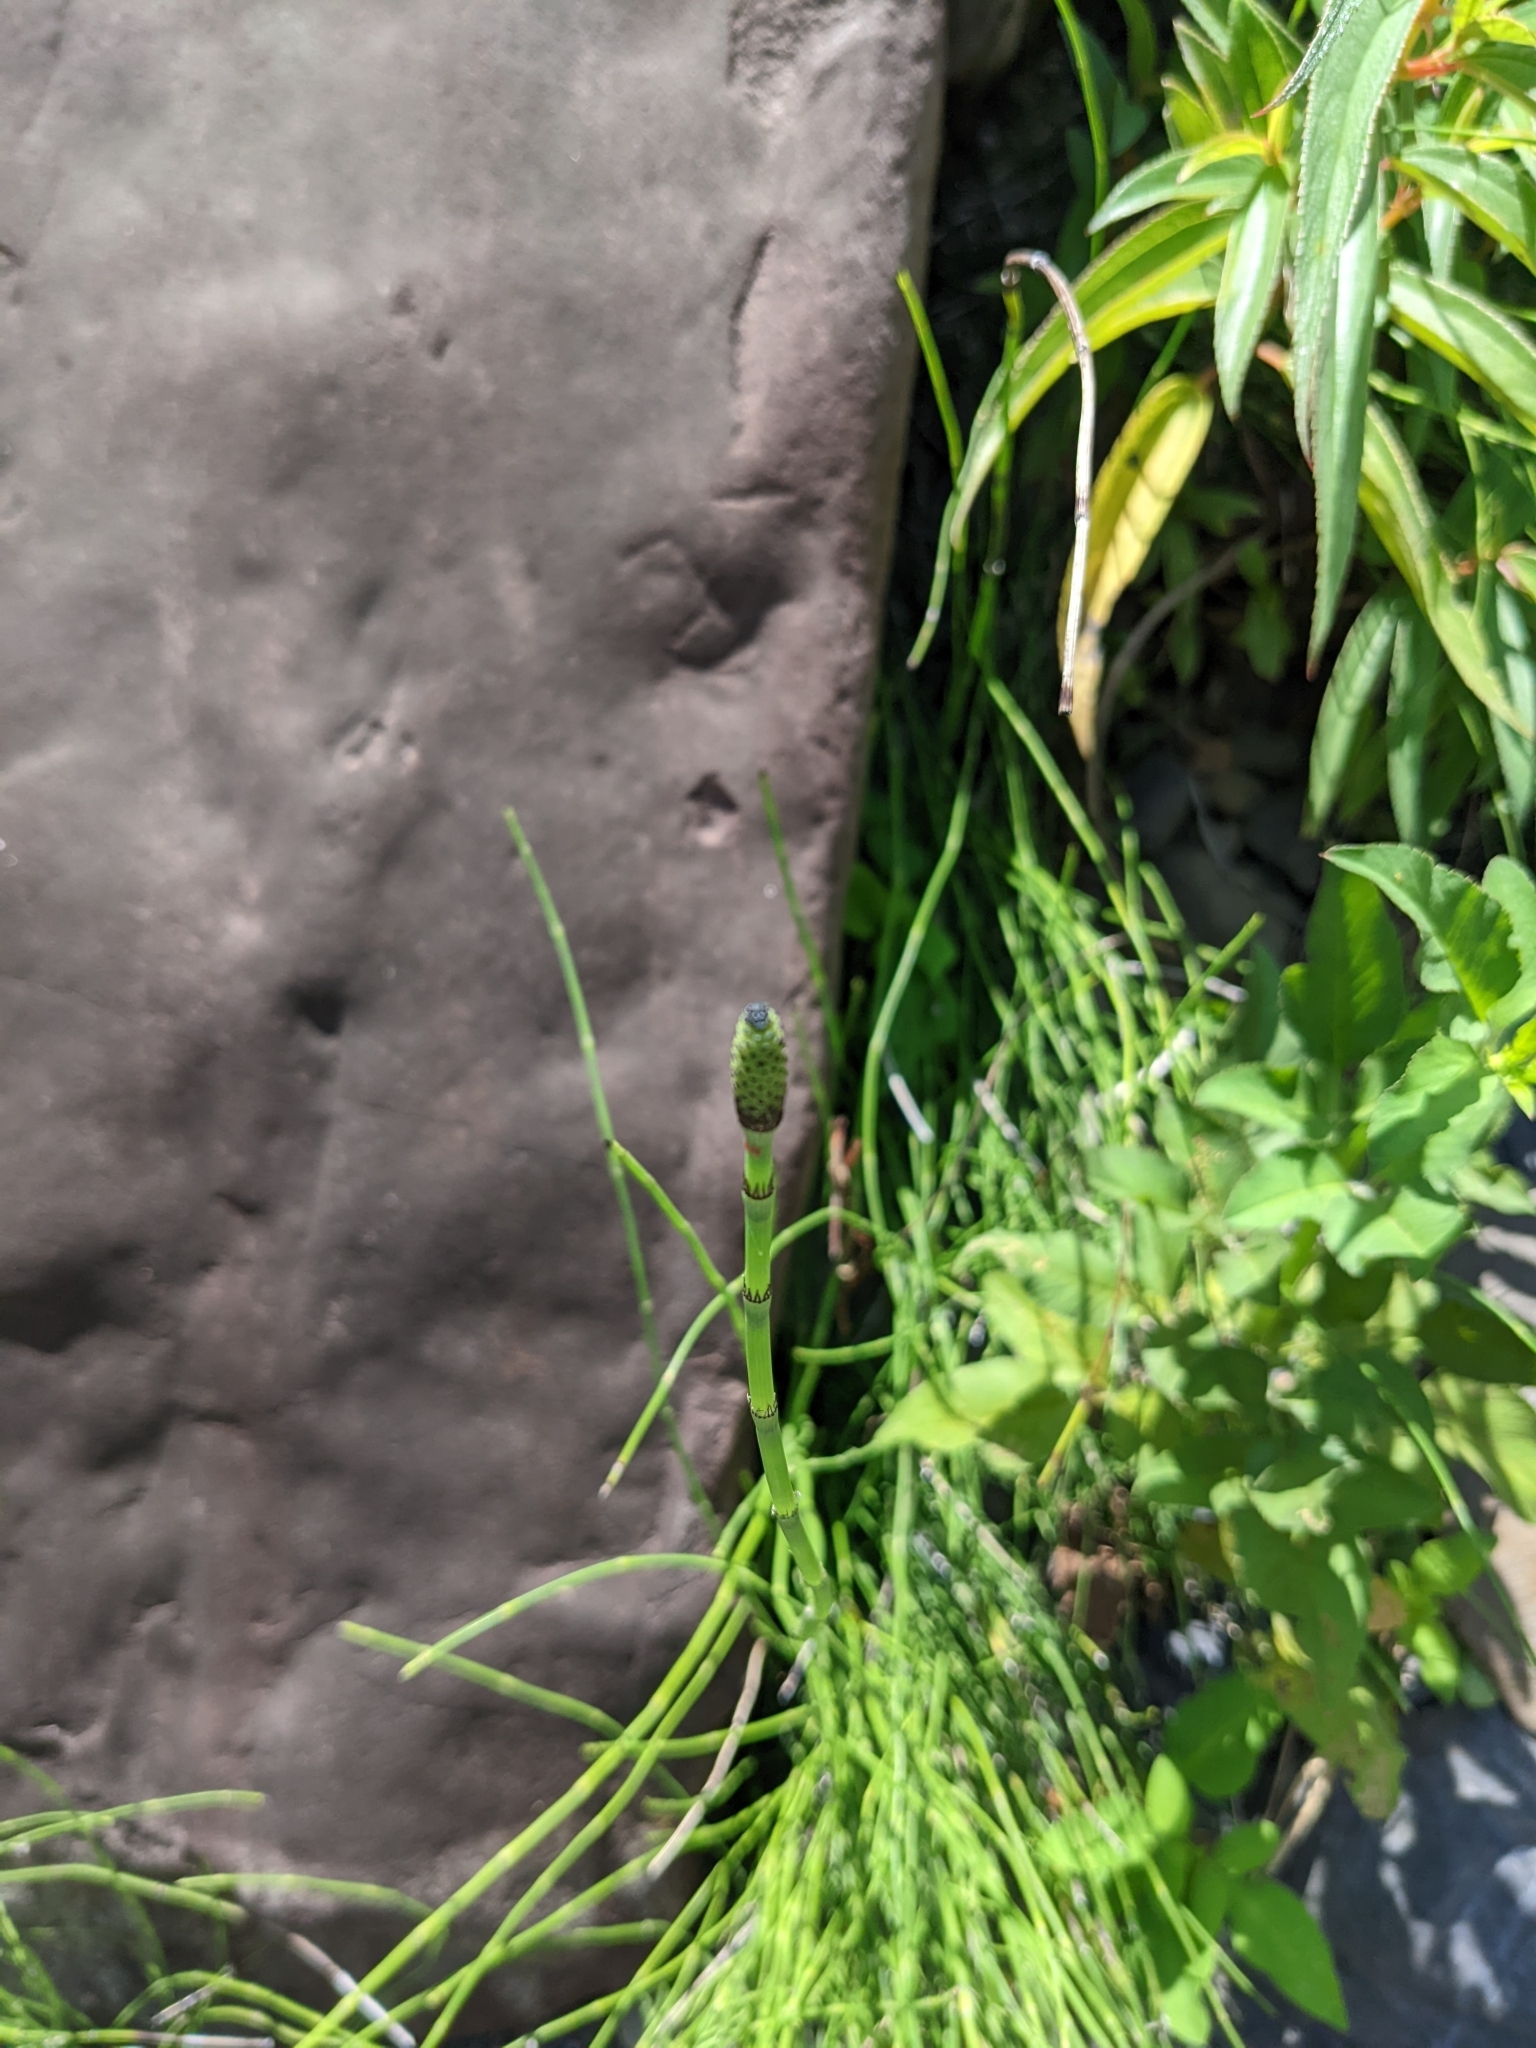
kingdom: Plantae
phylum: Tracheophyta
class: Polypodiopsida
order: Equisetales
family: Equisetaceae
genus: Equisetum
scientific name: Equisetum ramosissimum
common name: Branched horsetail
